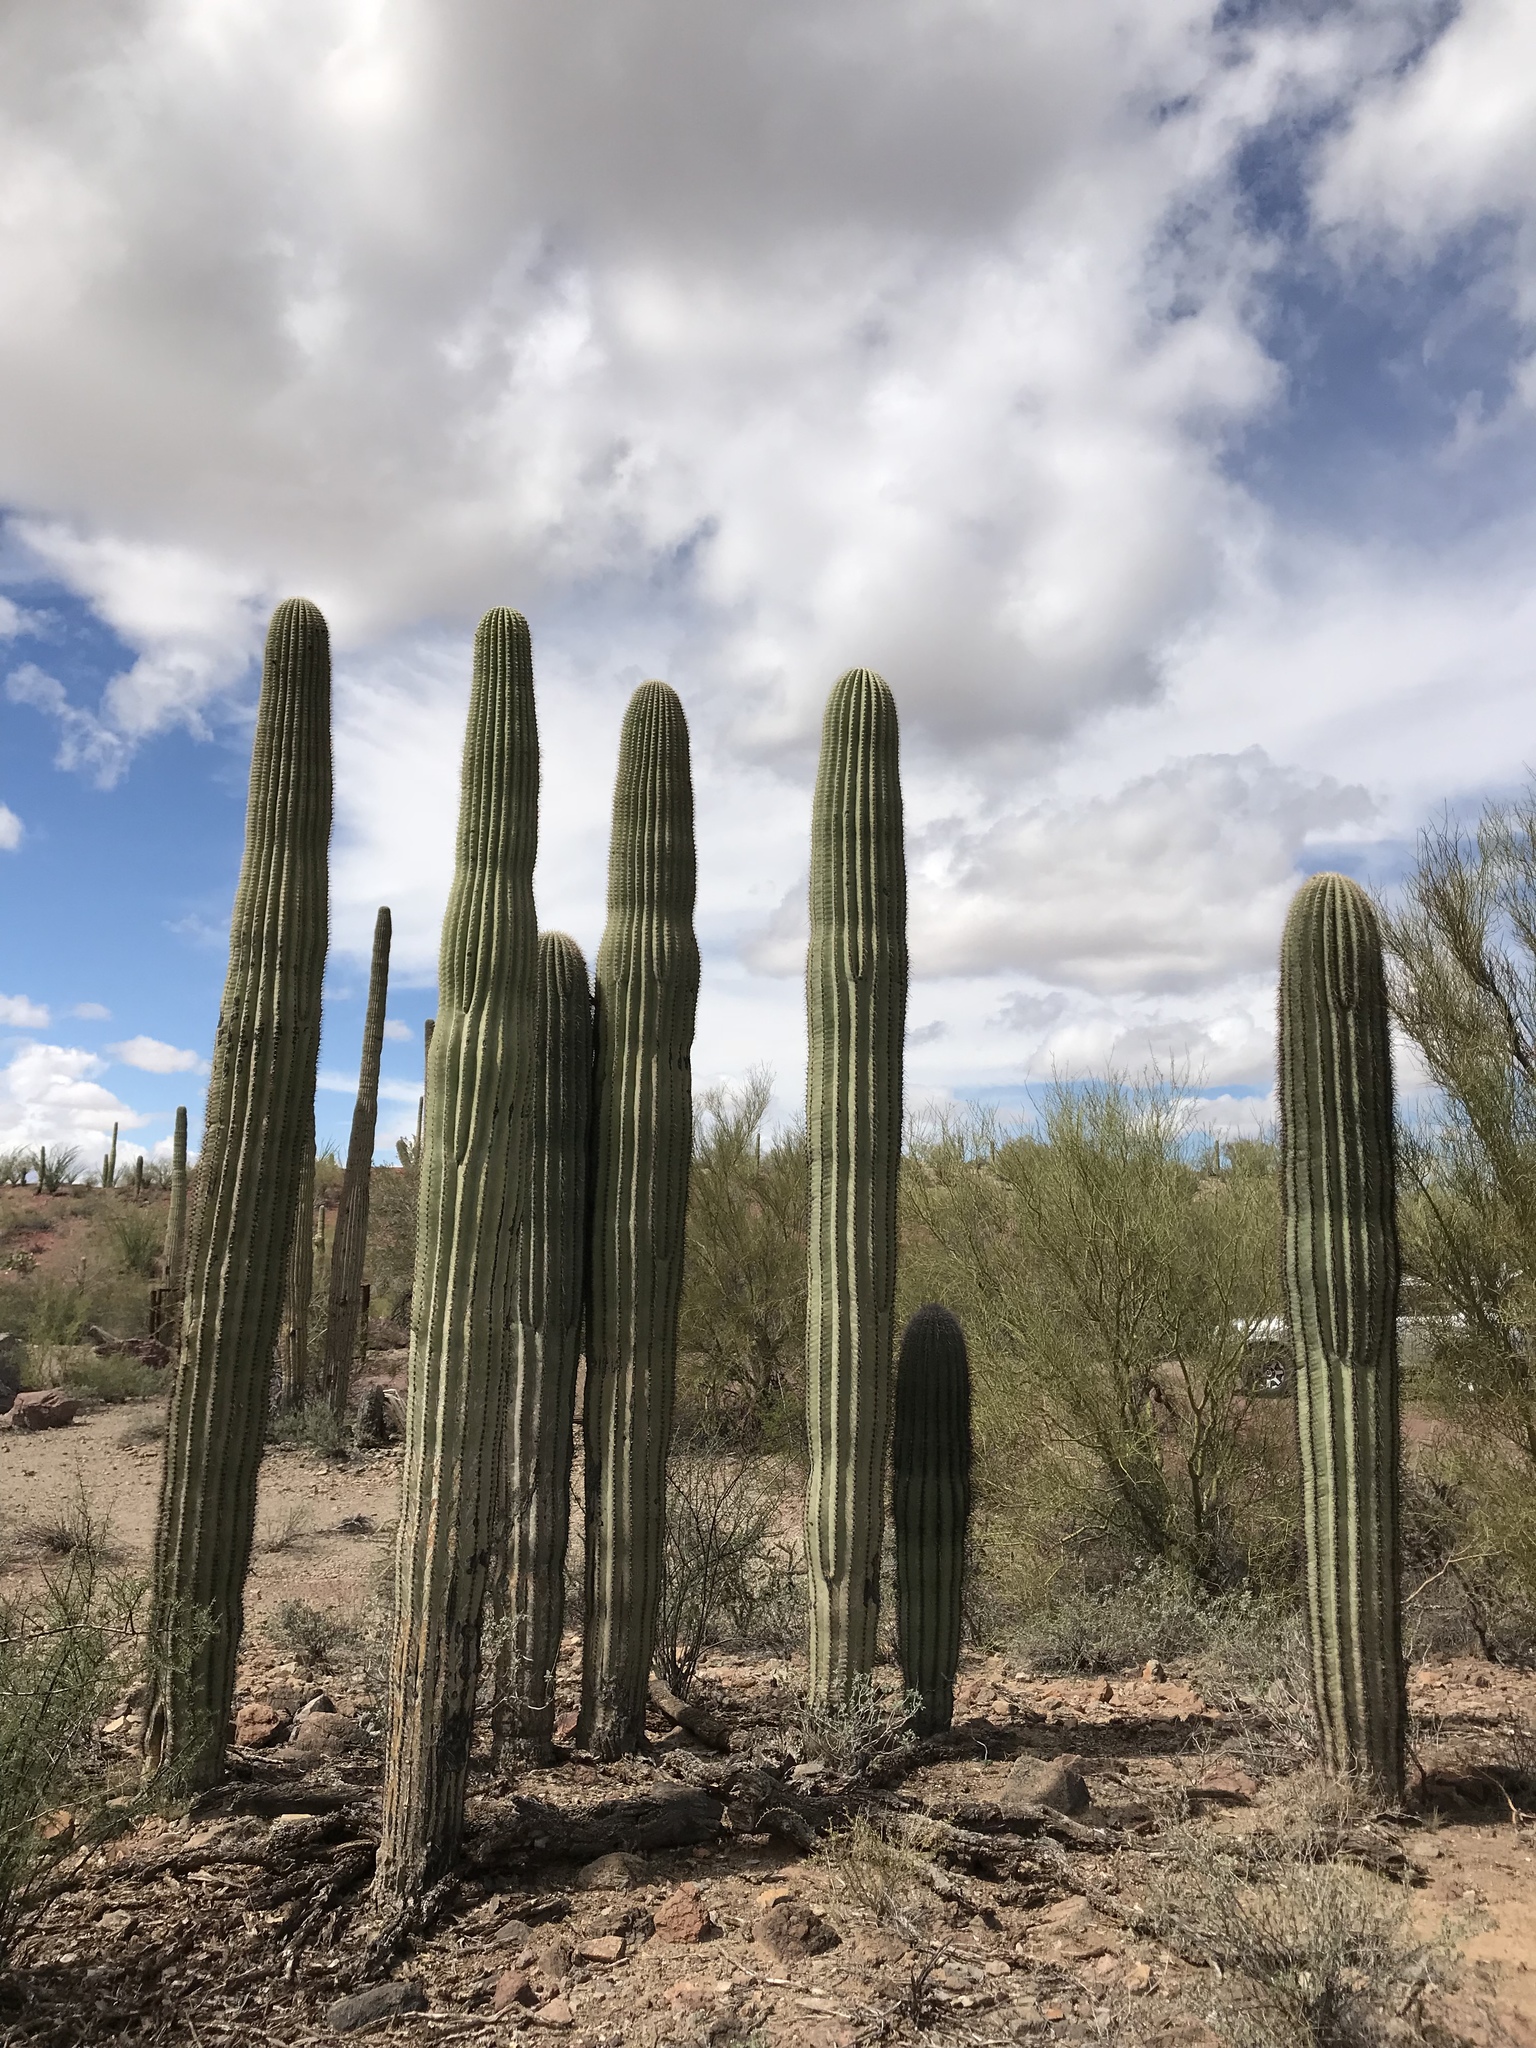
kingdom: Plantae
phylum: Tracheophyta
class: Magnoliopsida
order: Caryophyllales
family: Cactaceae
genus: Carnegiea
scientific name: Carnegiea gigantea
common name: Saguaro
